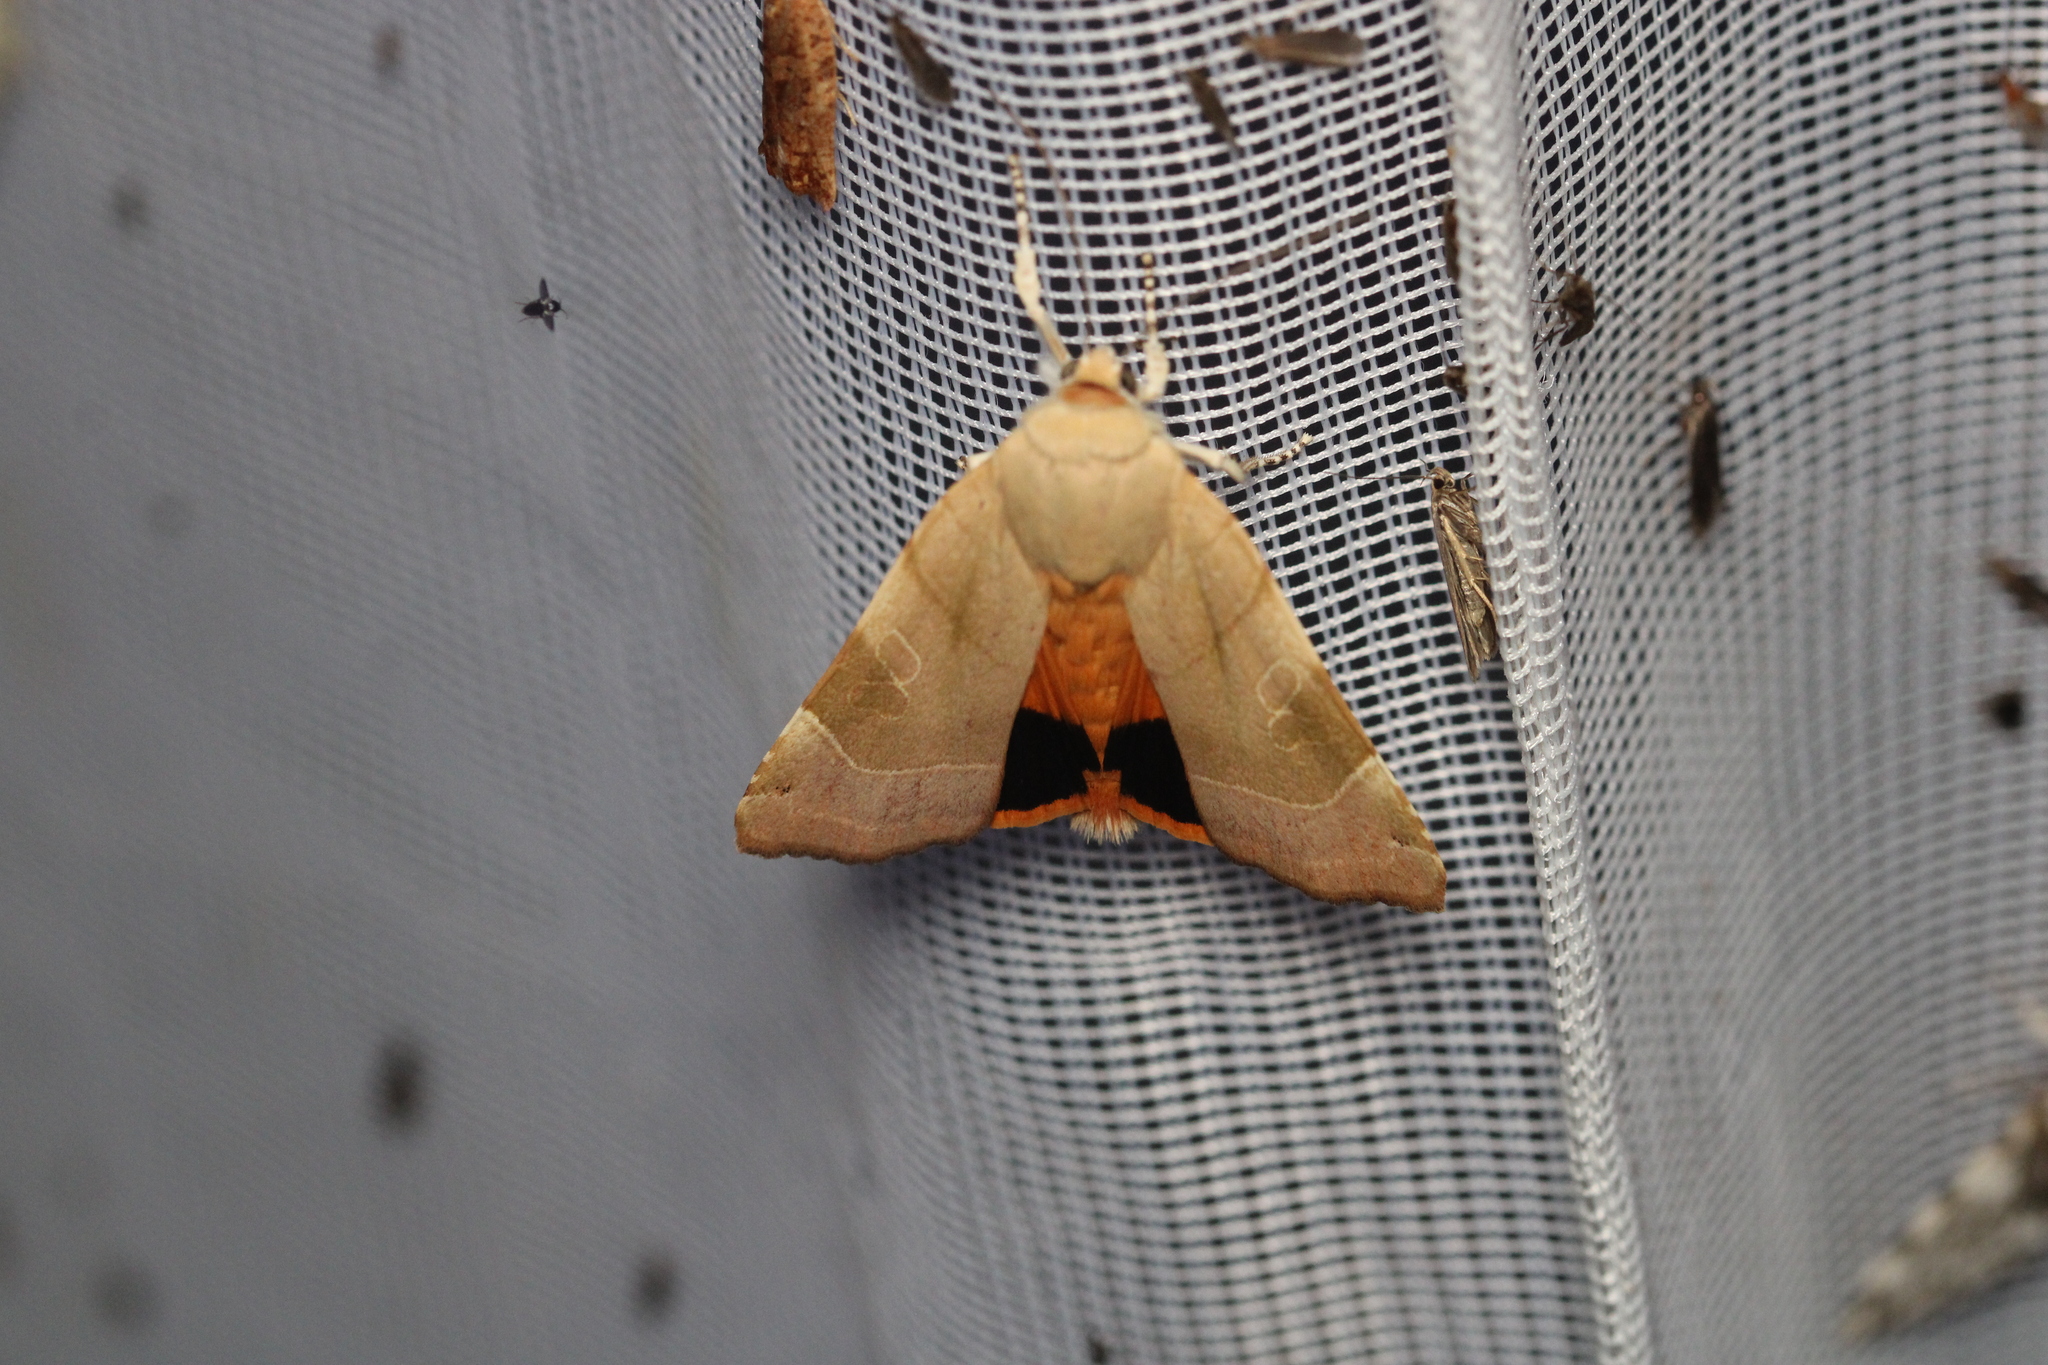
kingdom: Animalia
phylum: Arthropoda
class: Insecta
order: Lepidoptera
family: Noctuidae
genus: Noctua
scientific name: Noctua fimbriata
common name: Broad-bordered yellow underwing
